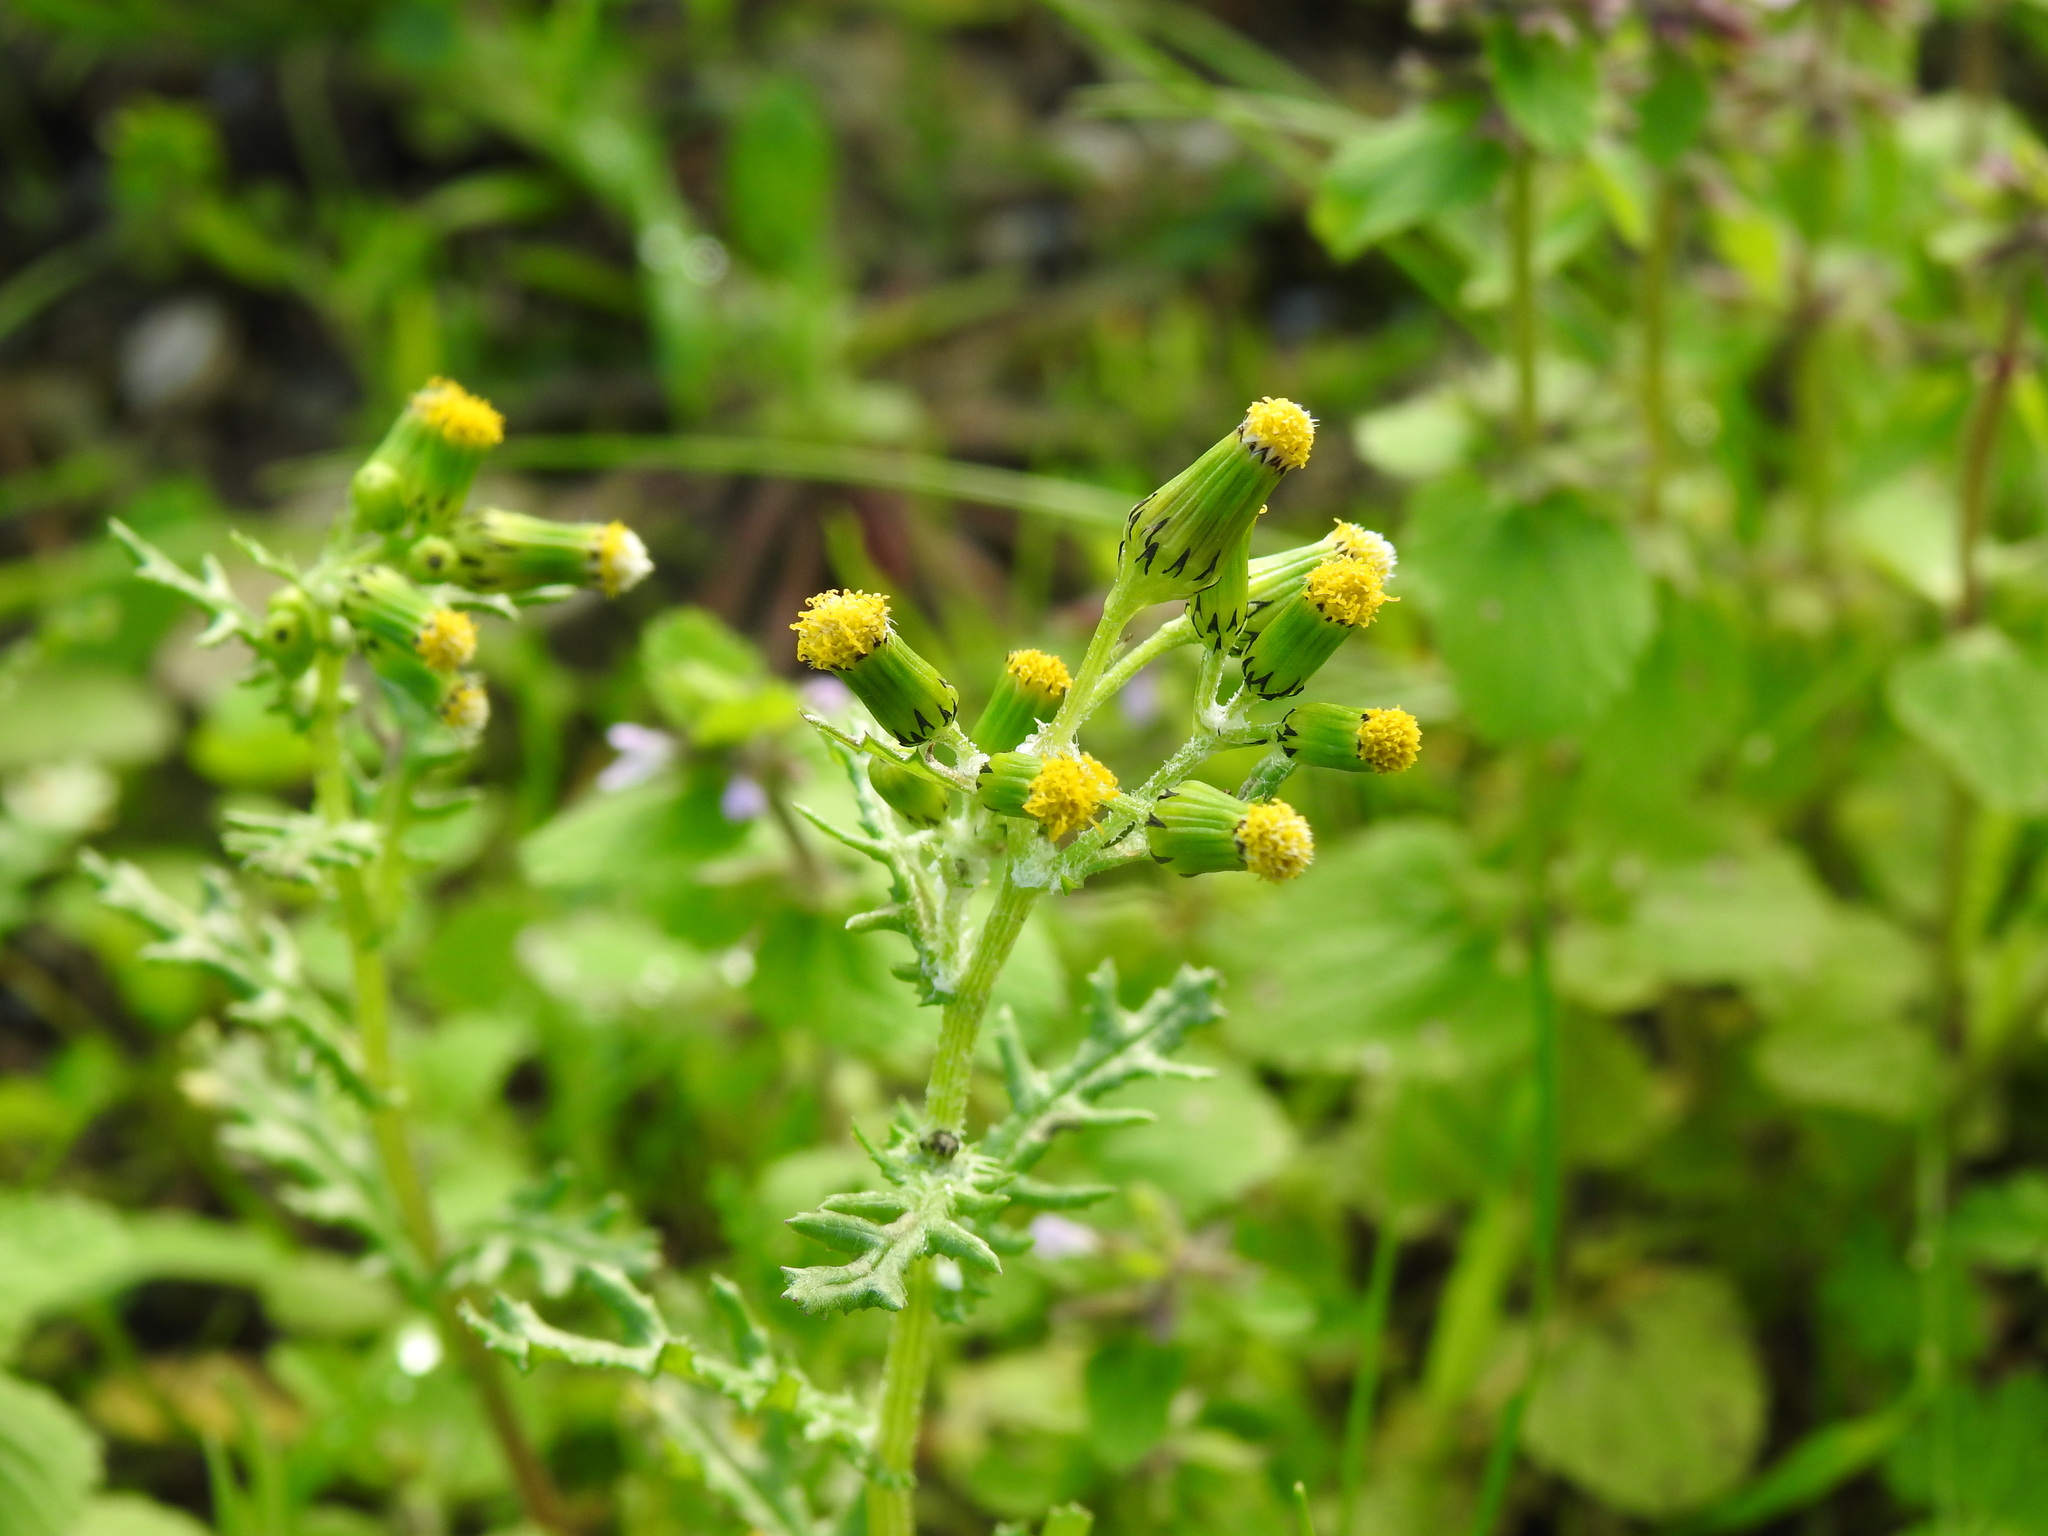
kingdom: Plantae
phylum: Tracheophyta
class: Magnoliopsida
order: Asterales
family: Asteraceae
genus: Senecio
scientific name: Senecio vulgaris
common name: Old-man-in-the-spring
